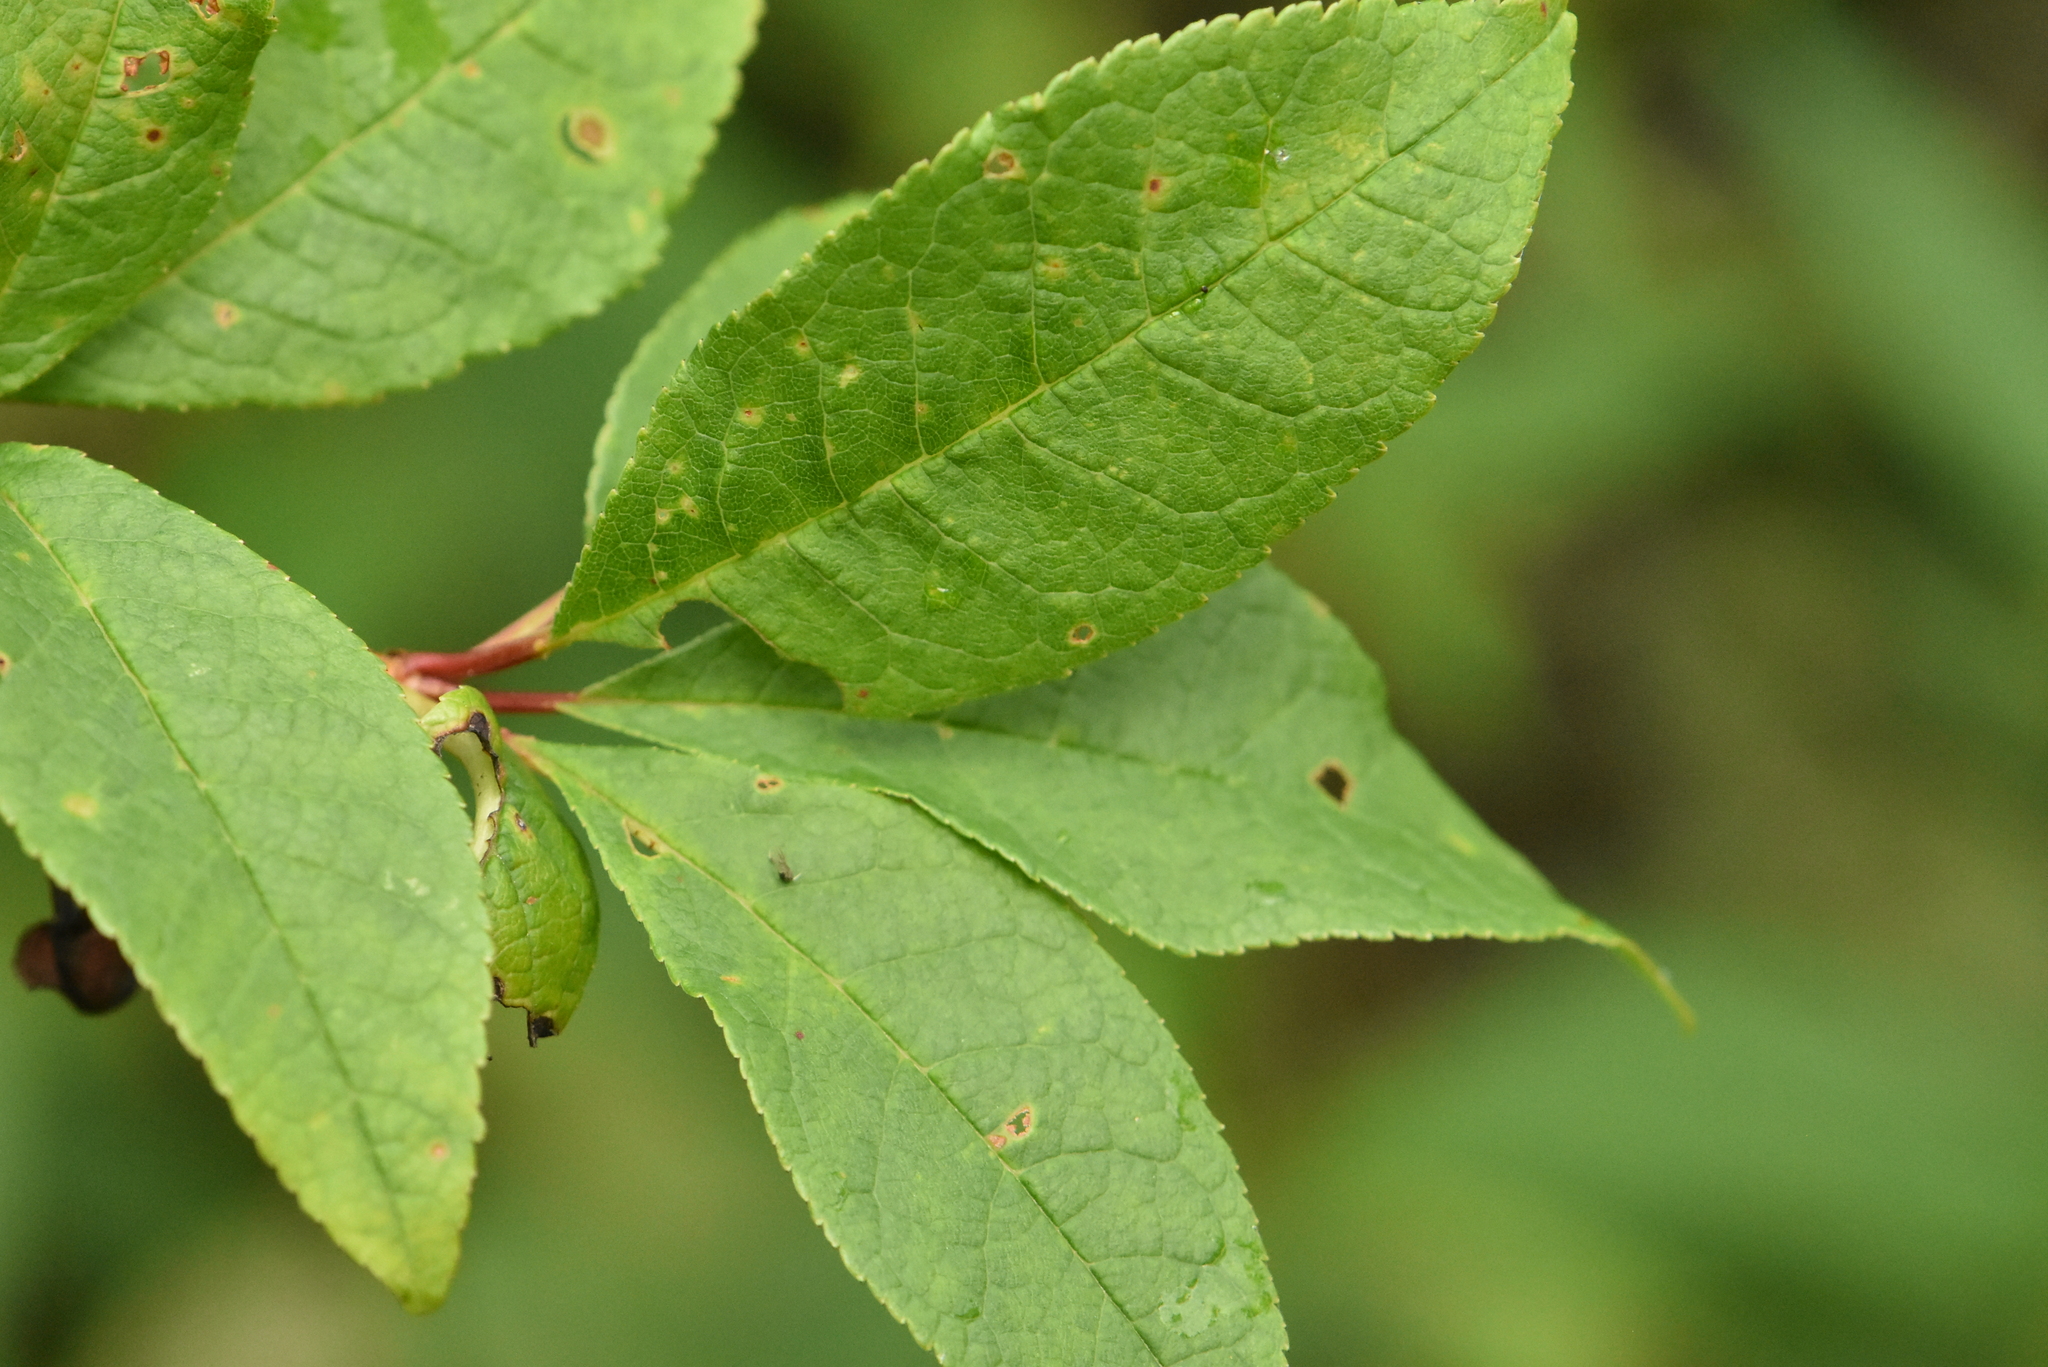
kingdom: Plantae
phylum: Tracheophyta
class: Magnoliopsida
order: Rosales
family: Rosaceae
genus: Prunus
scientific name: Prunus padus
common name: Bird cherry
